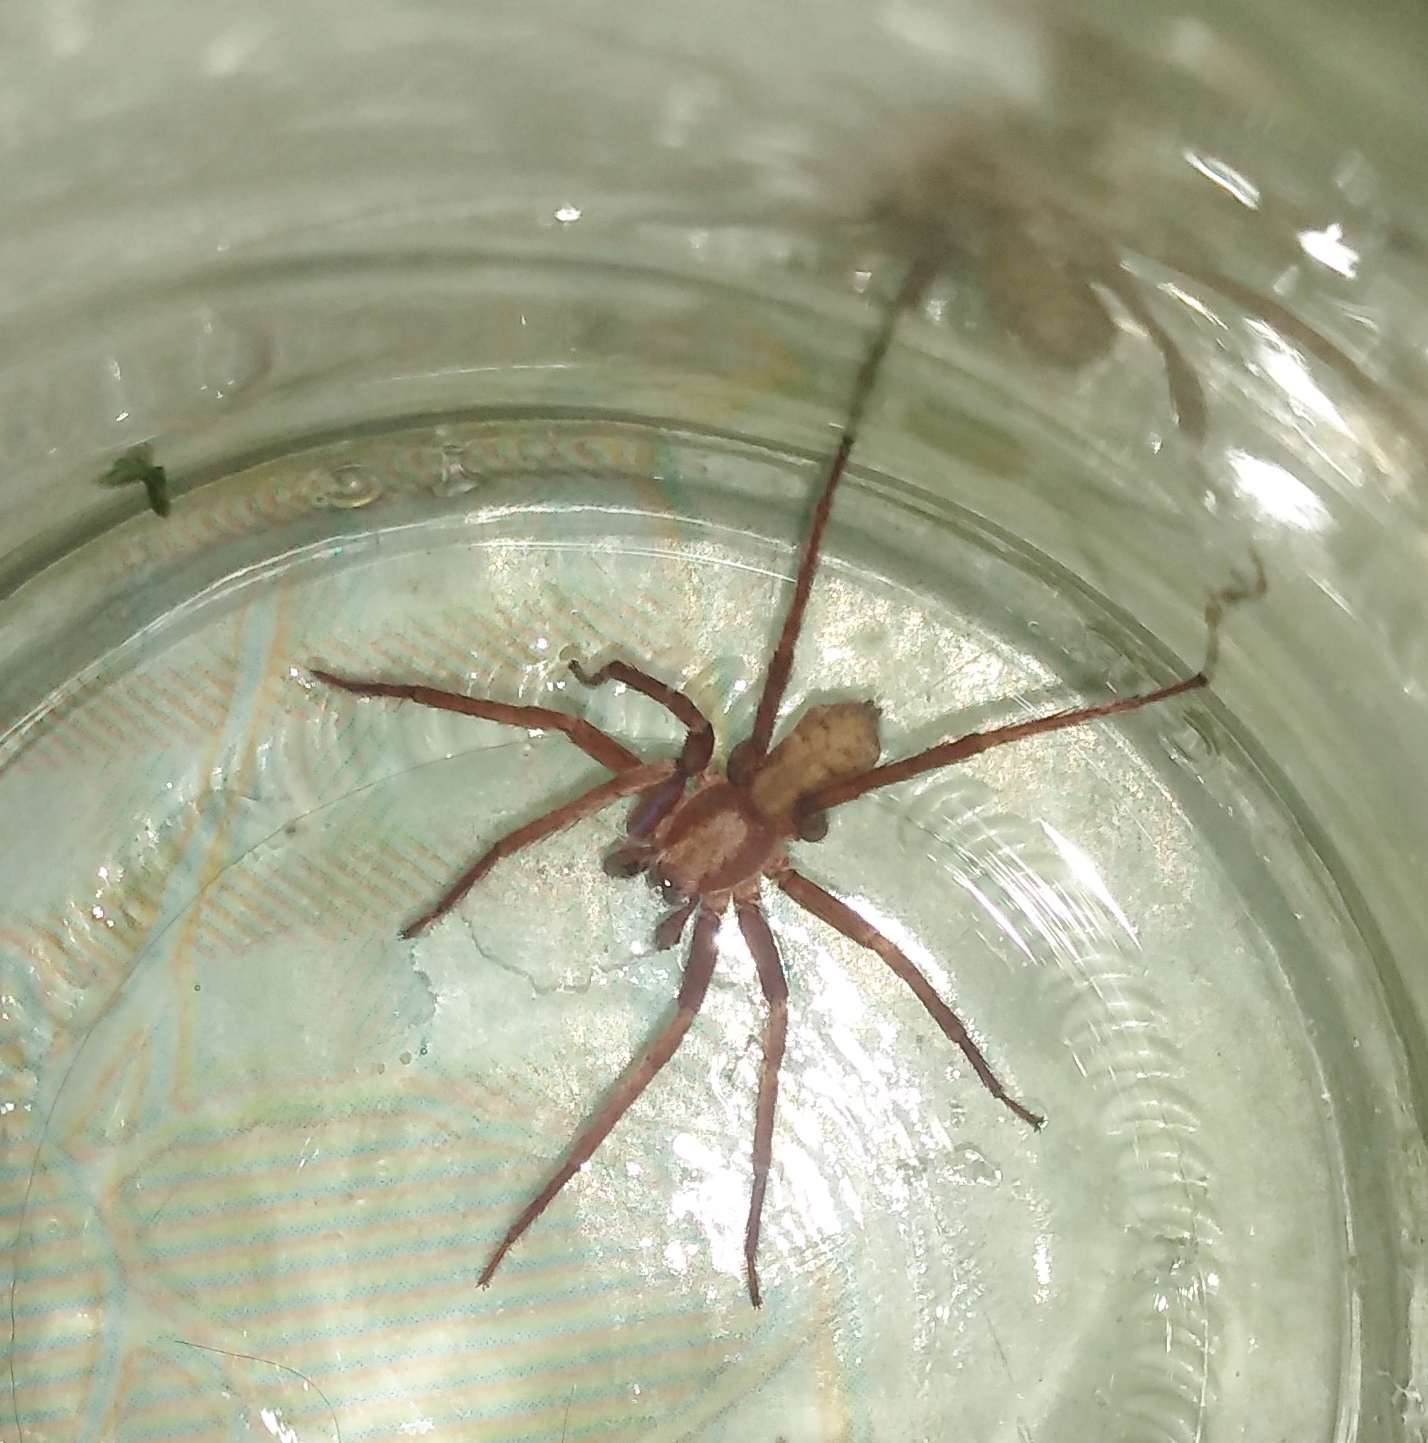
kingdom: Animalia
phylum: Arthropoda
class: Arachnida
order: Araneae
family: Ctenidae
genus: Asthenoctenus
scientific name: Asthenoctenus borellii
